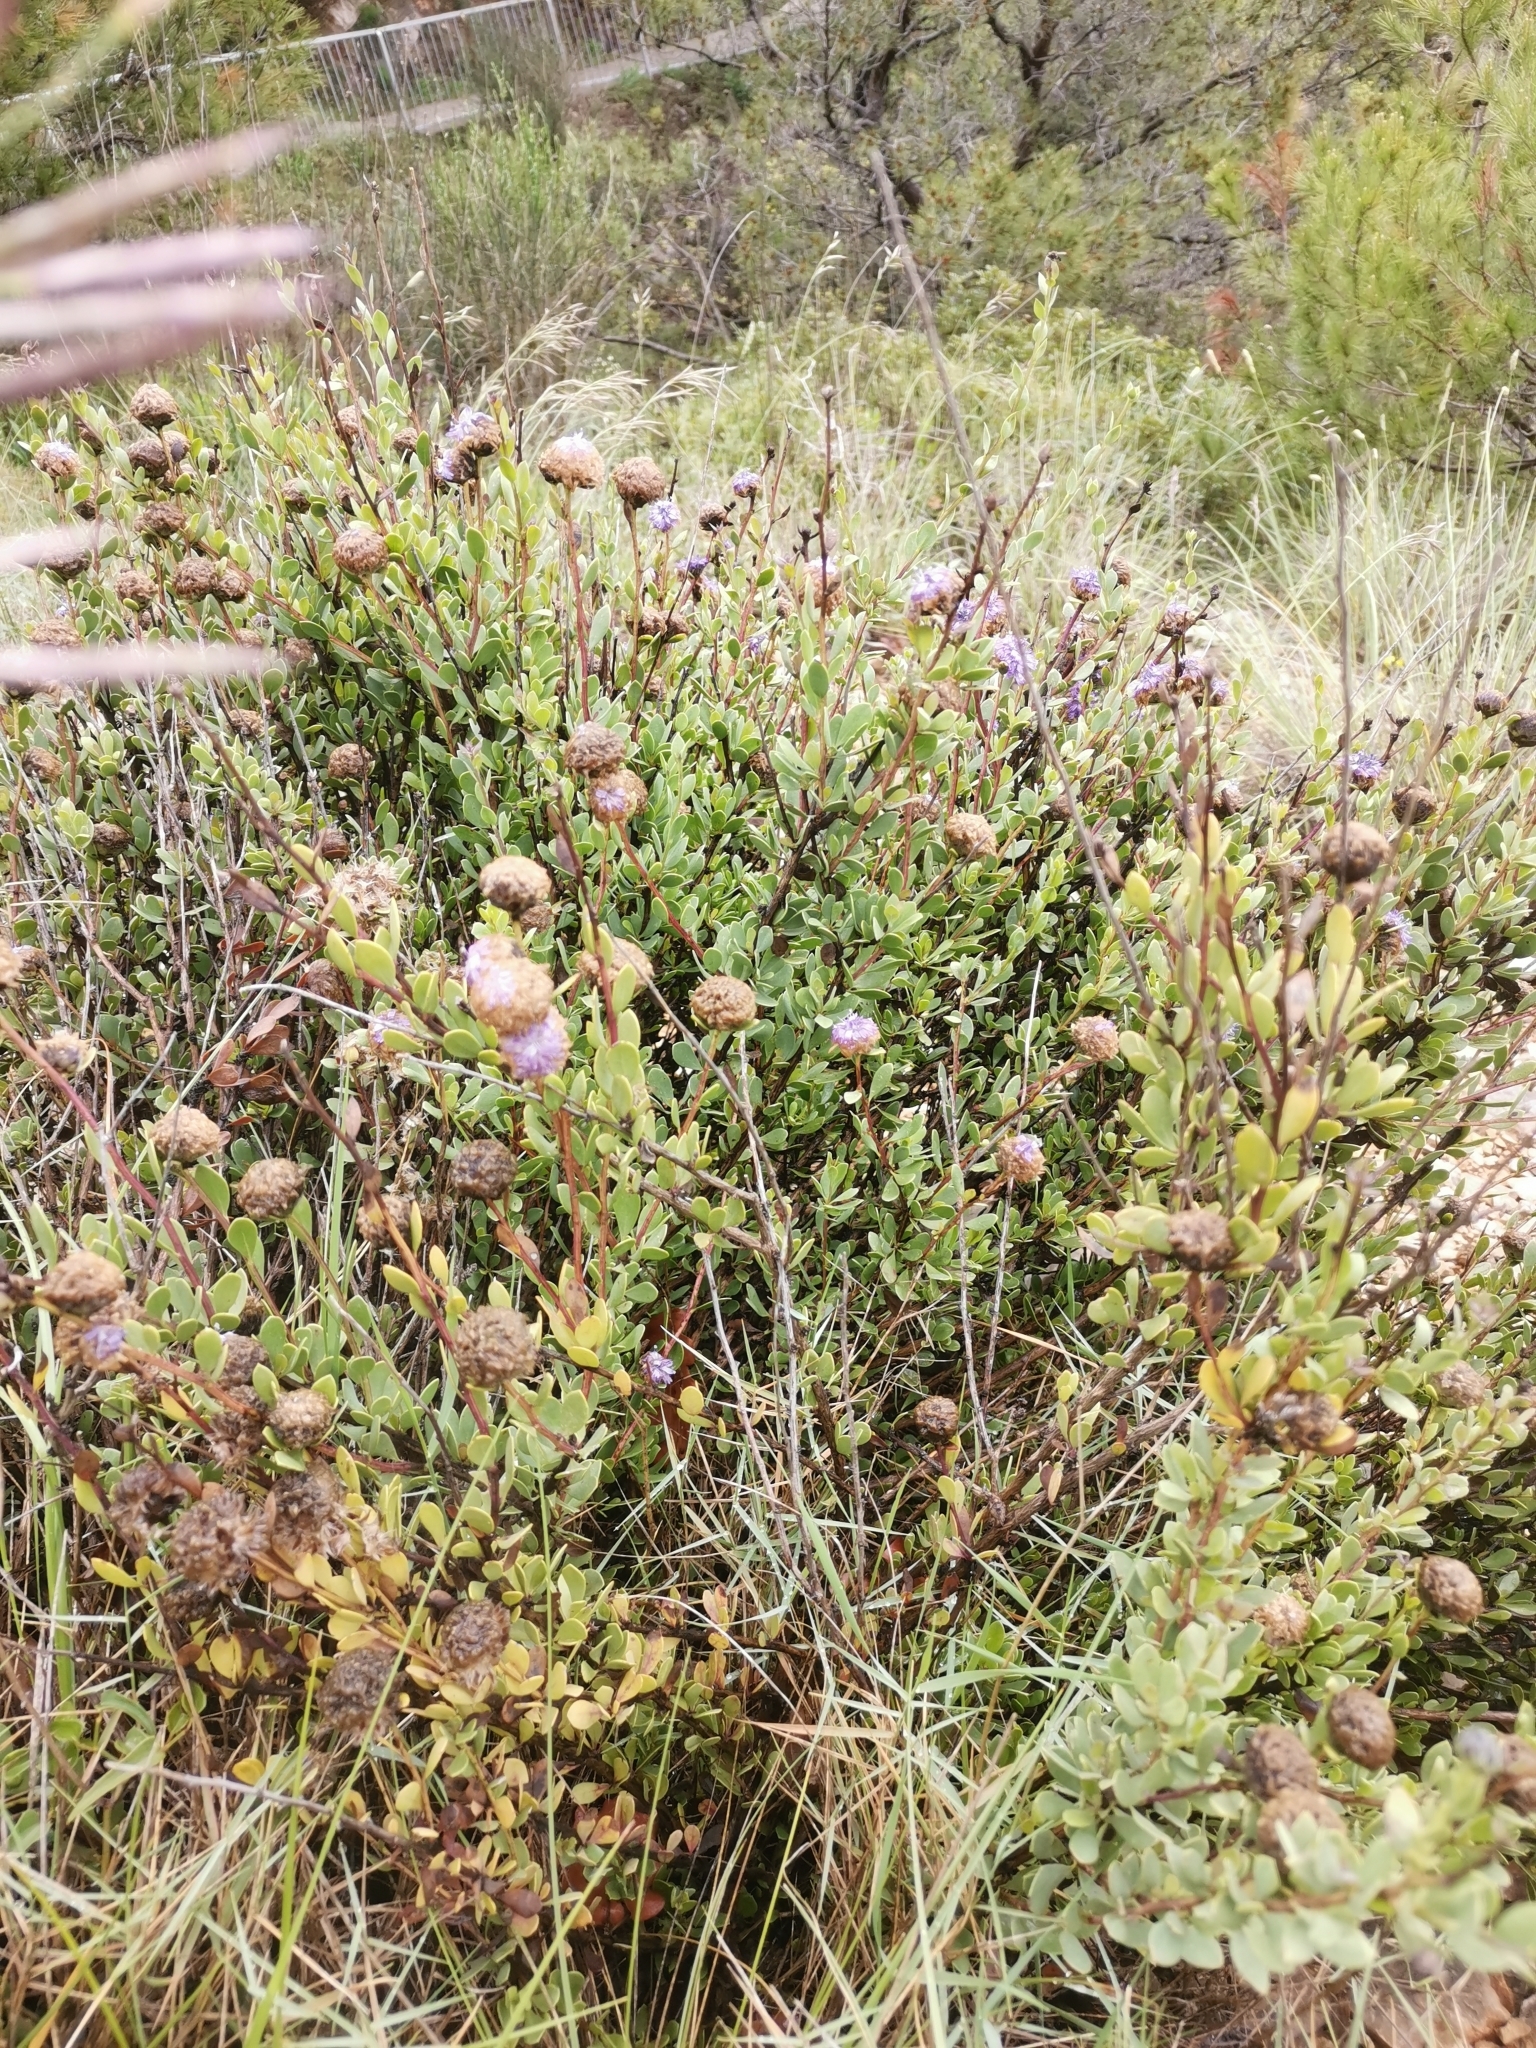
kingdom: Plantae
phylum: Tracheophyta
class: Magnoliopsida
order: Lamiales
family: Plantaginaceae
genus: Globularia
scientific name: Globularia alypum
